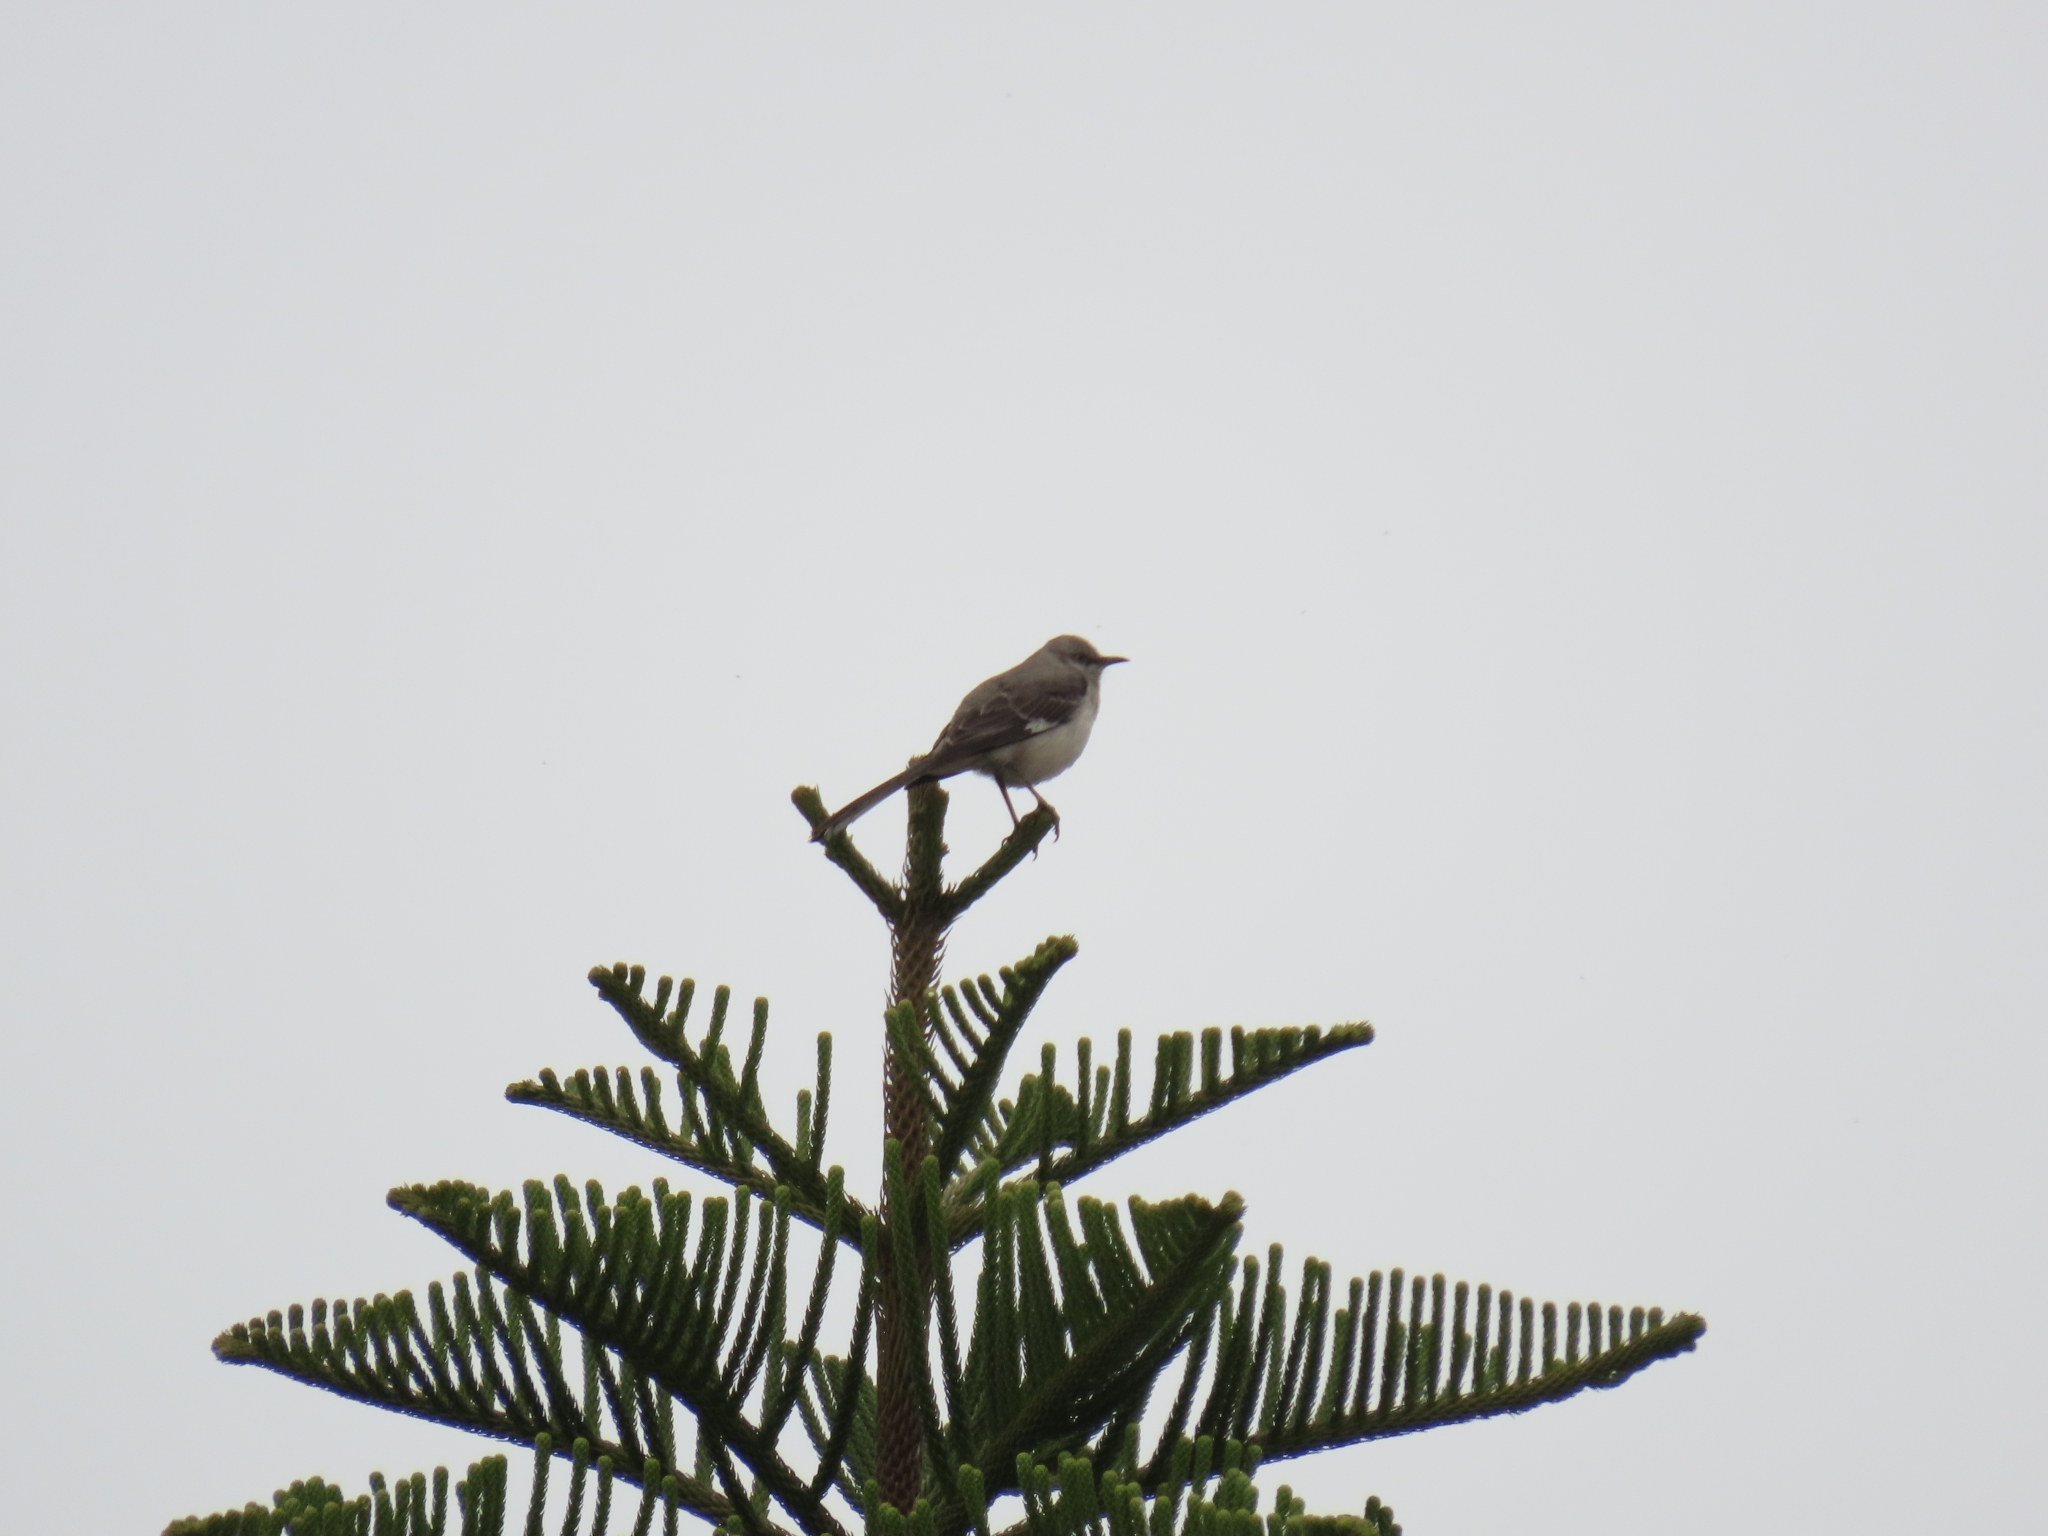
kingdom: Animalia
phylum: Chordata
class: Aves
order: Passeriformes
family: Mimidae
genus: Mimus
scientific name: Mimus polyglottos
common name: Northern mockingbird
